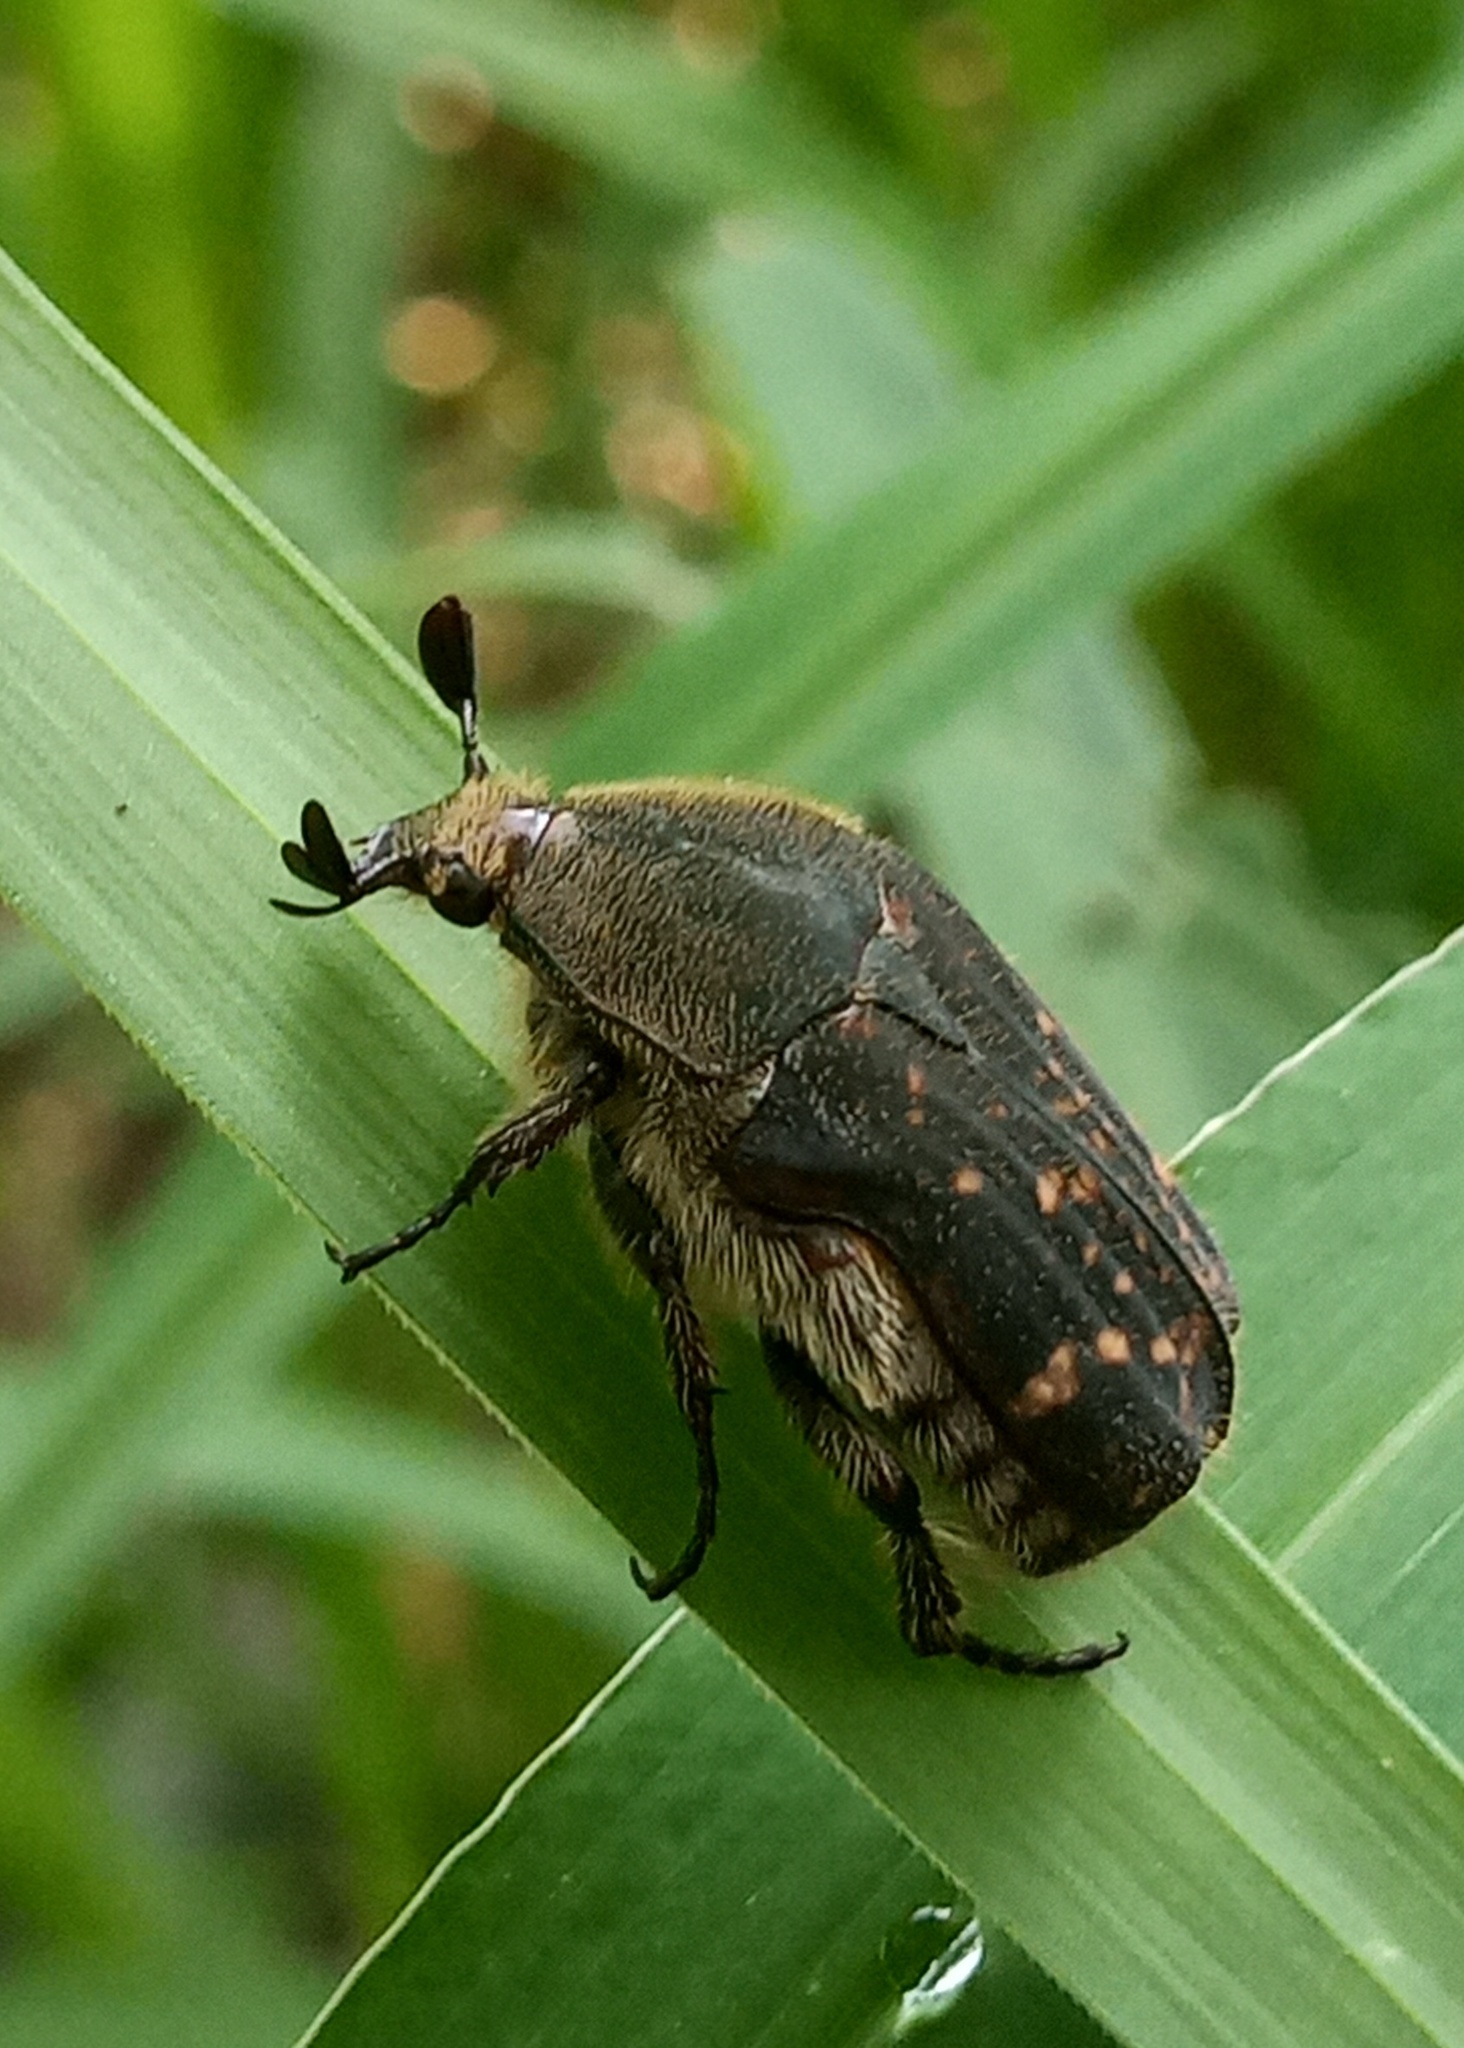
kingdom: Animalia
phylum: Arthropoda
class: Insecta
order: Coleoptera
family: Scarabaeidae
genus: Euphoria
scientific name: Euphoria schotti
